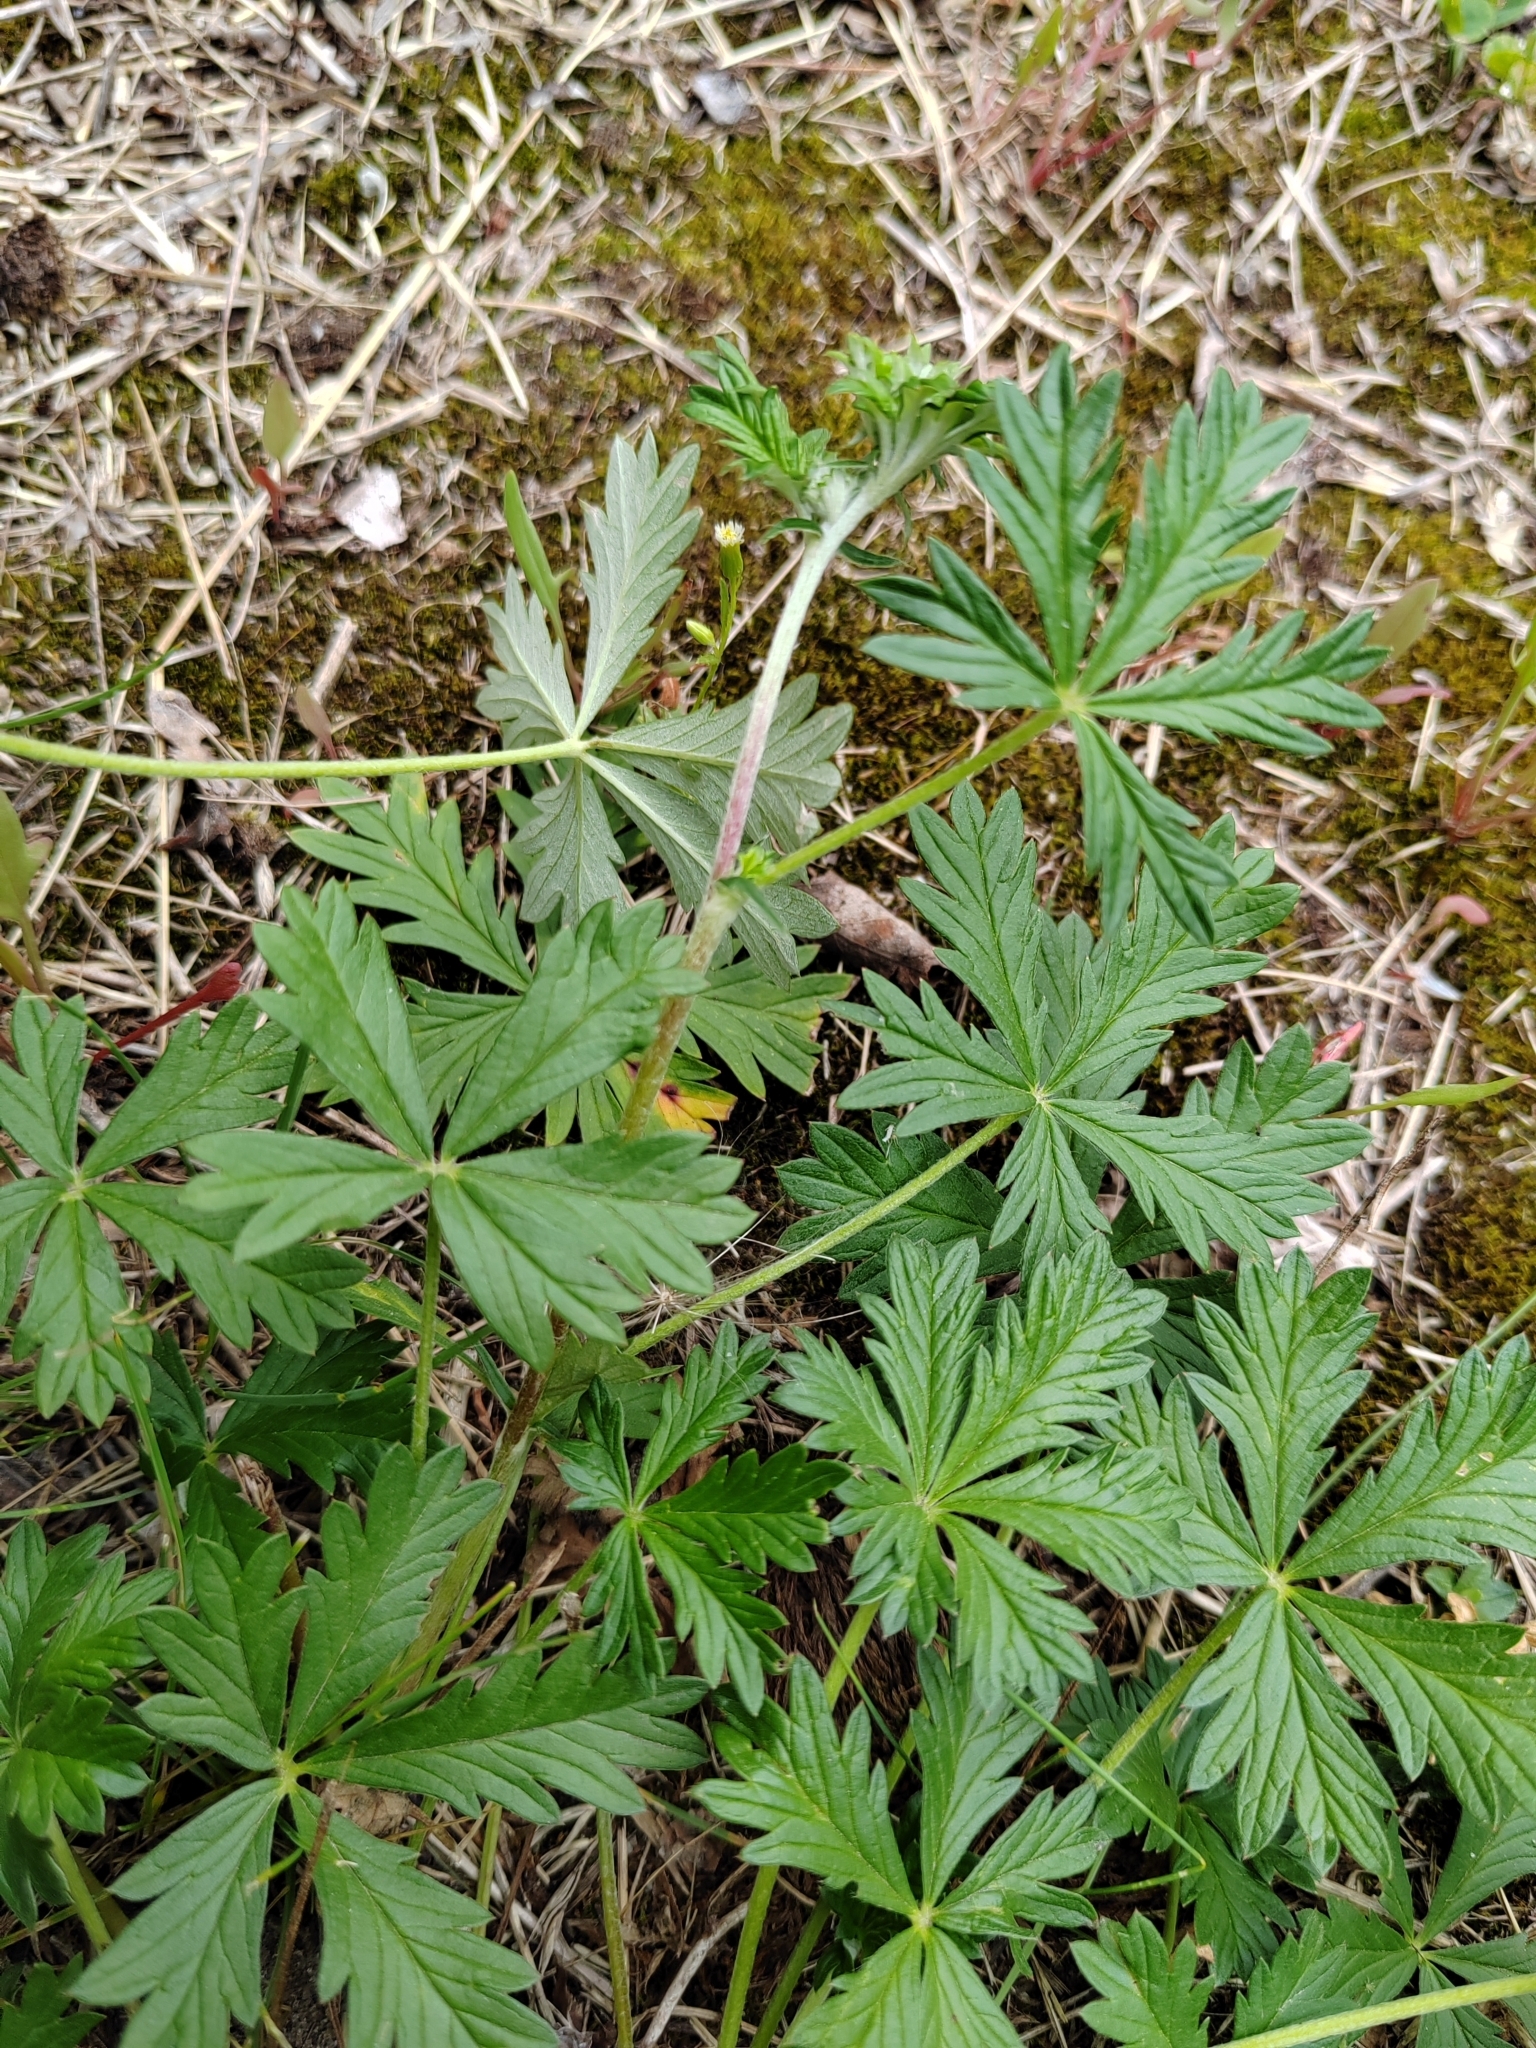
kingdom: Plantae
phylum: Tracheophyta
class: Magnoliopsida
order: Rosales
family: Rosaceae
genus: Potentilla
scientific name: Potentilla argentea
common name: Hoary cinquefoil
